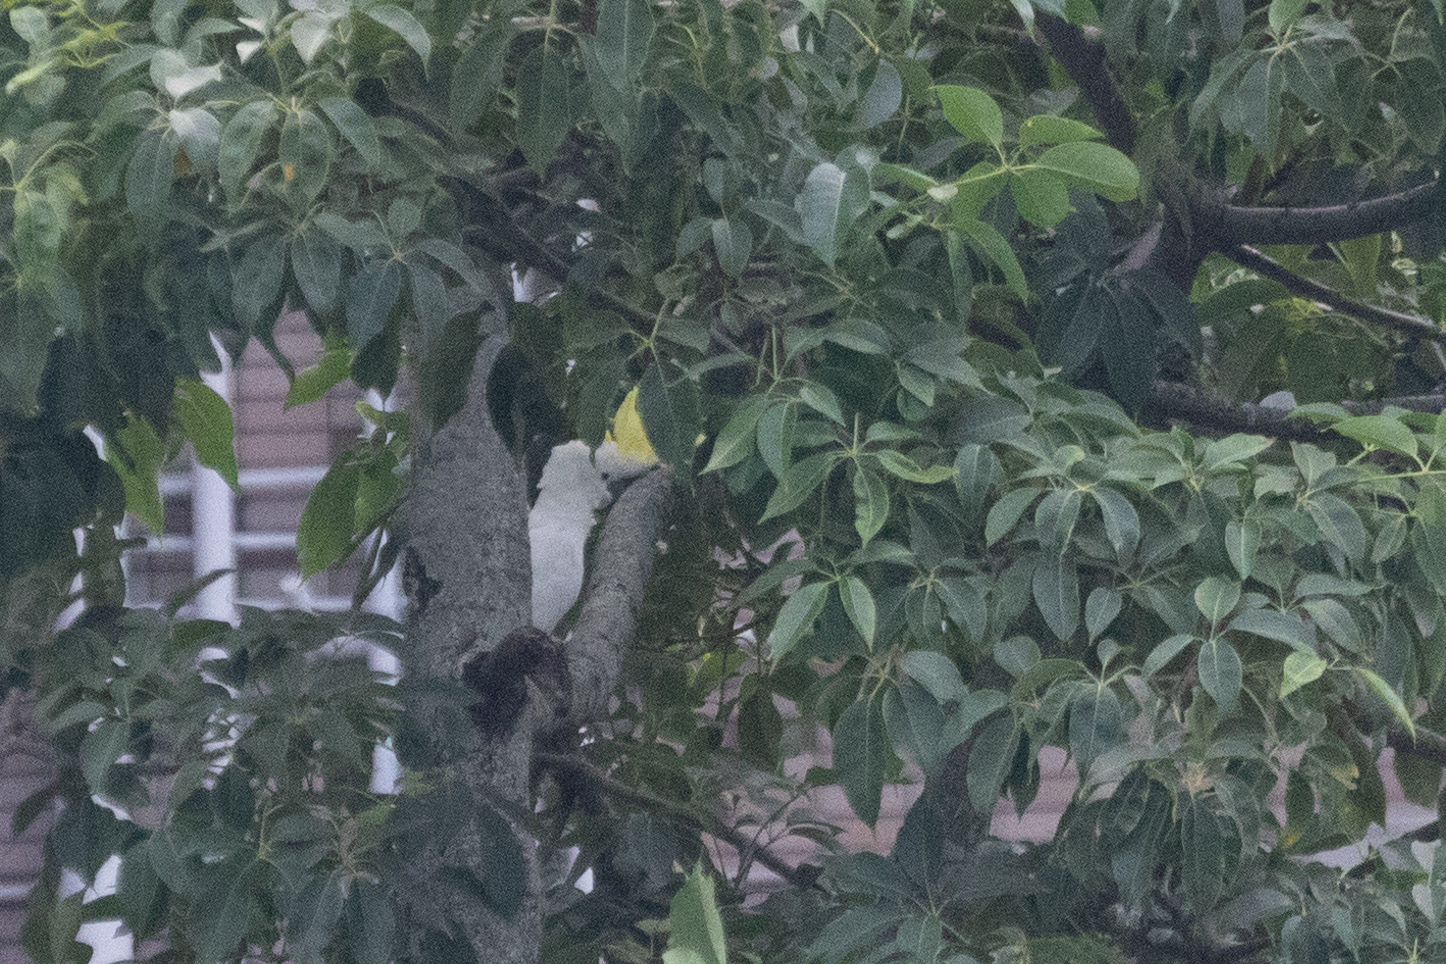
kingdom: Animalia
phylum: Chordata
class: Aves
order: Psittaciformes
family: Psittacidae
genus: Cacatua
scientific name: Cacatua sulphurea
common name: Yellow-crested cockatoo
